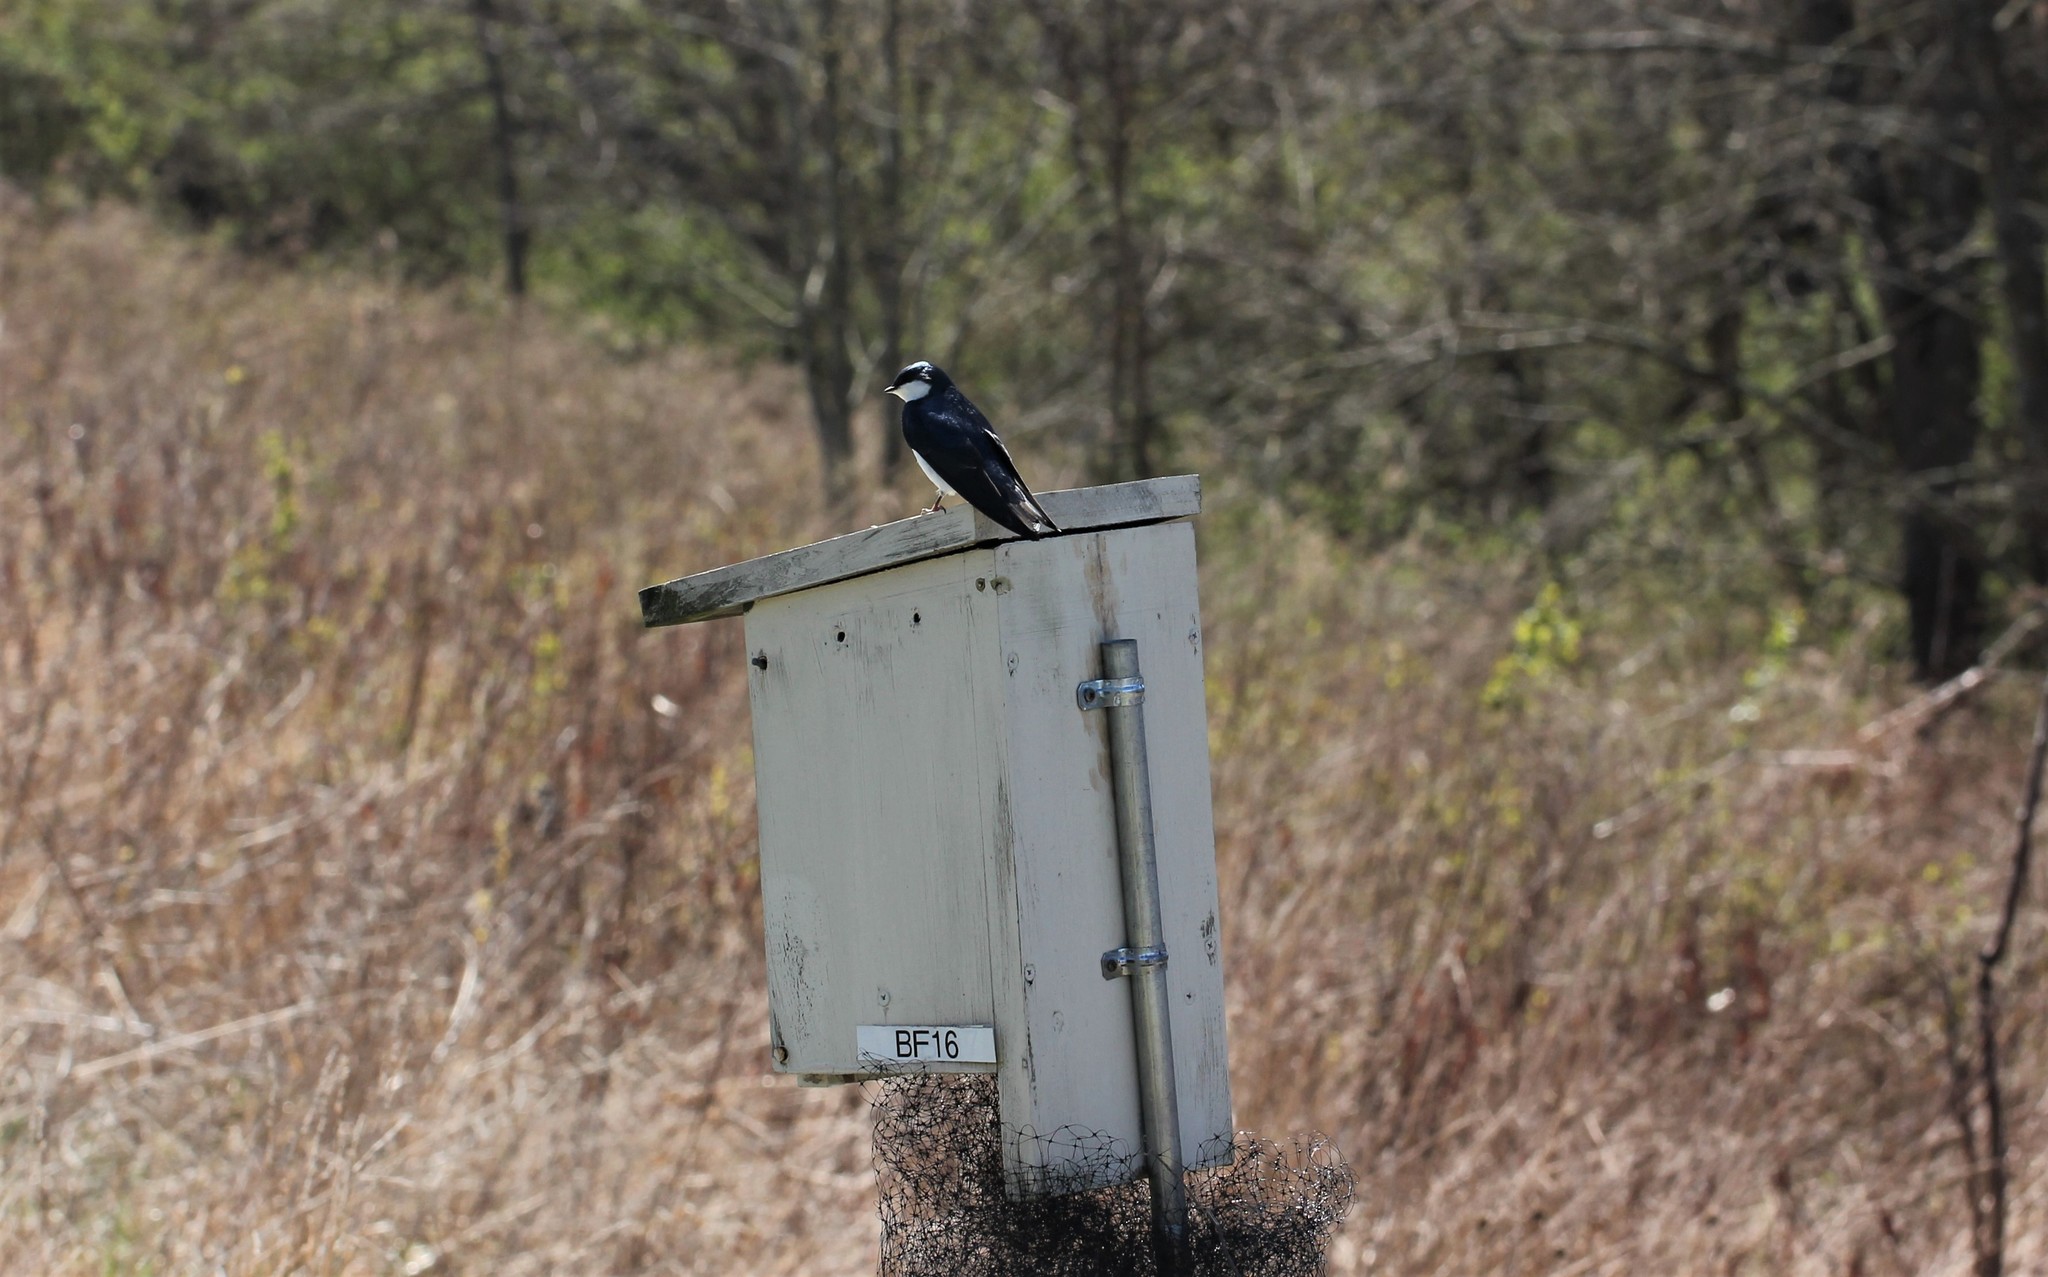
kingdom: Animalia
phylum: Chordata
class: Aves
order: Passeriformes
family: Hirundinidae
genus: Tachycineta
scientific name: Tachycineta bicolor
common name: Tree swallow
